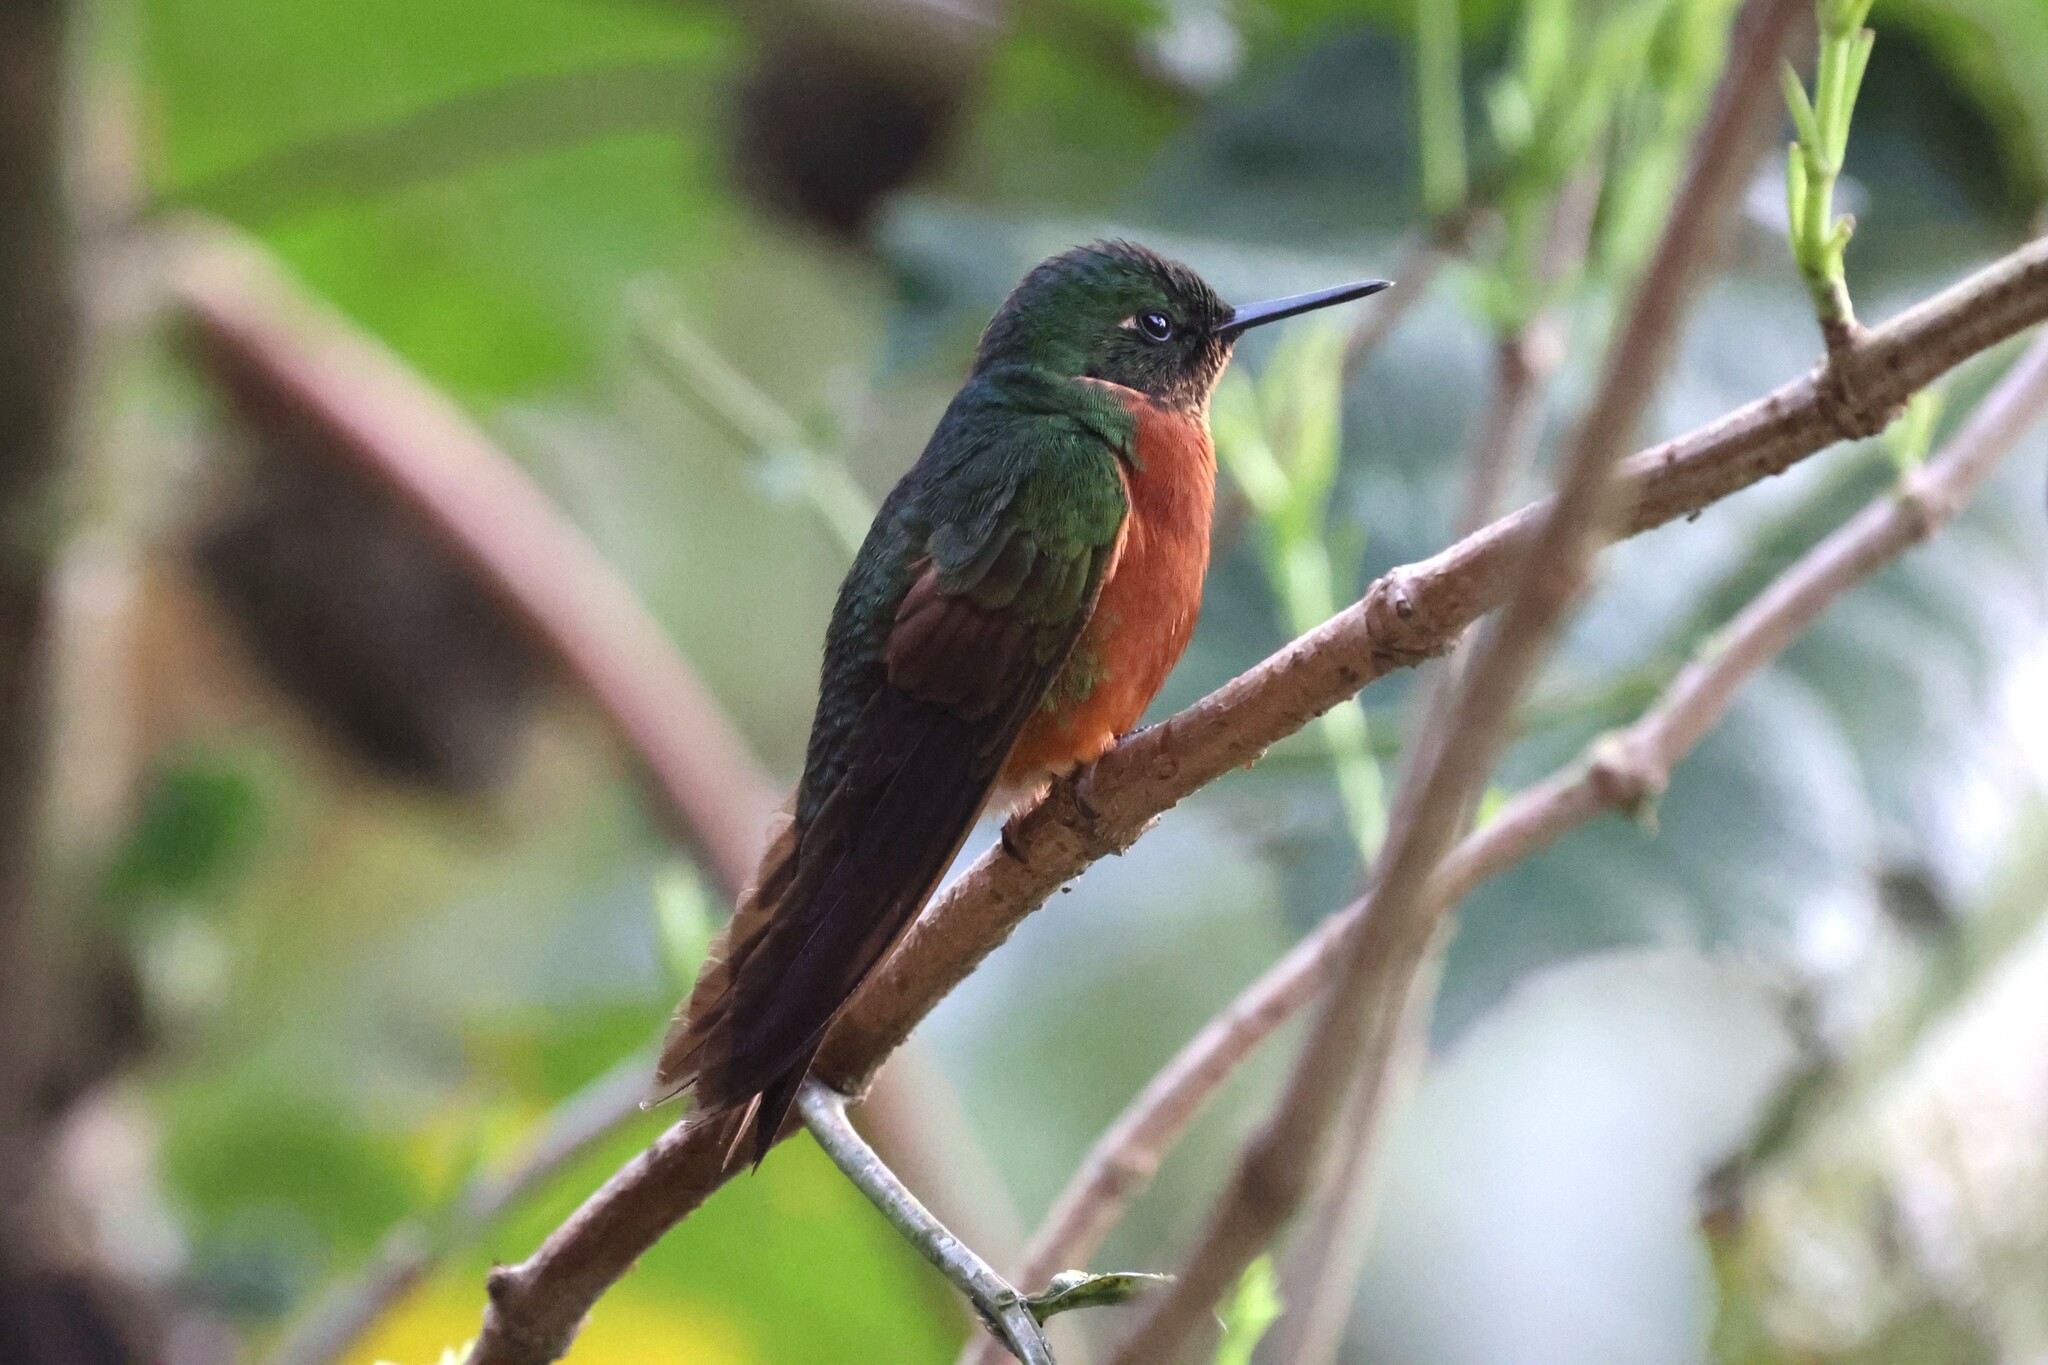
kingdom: Animalia
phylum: Chordata
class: Aves
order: Apodiformes
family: Trochilidae
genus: Boissonneaua
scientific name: Boissonneaua matthewsii
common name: Chestnut-breasted coronet
